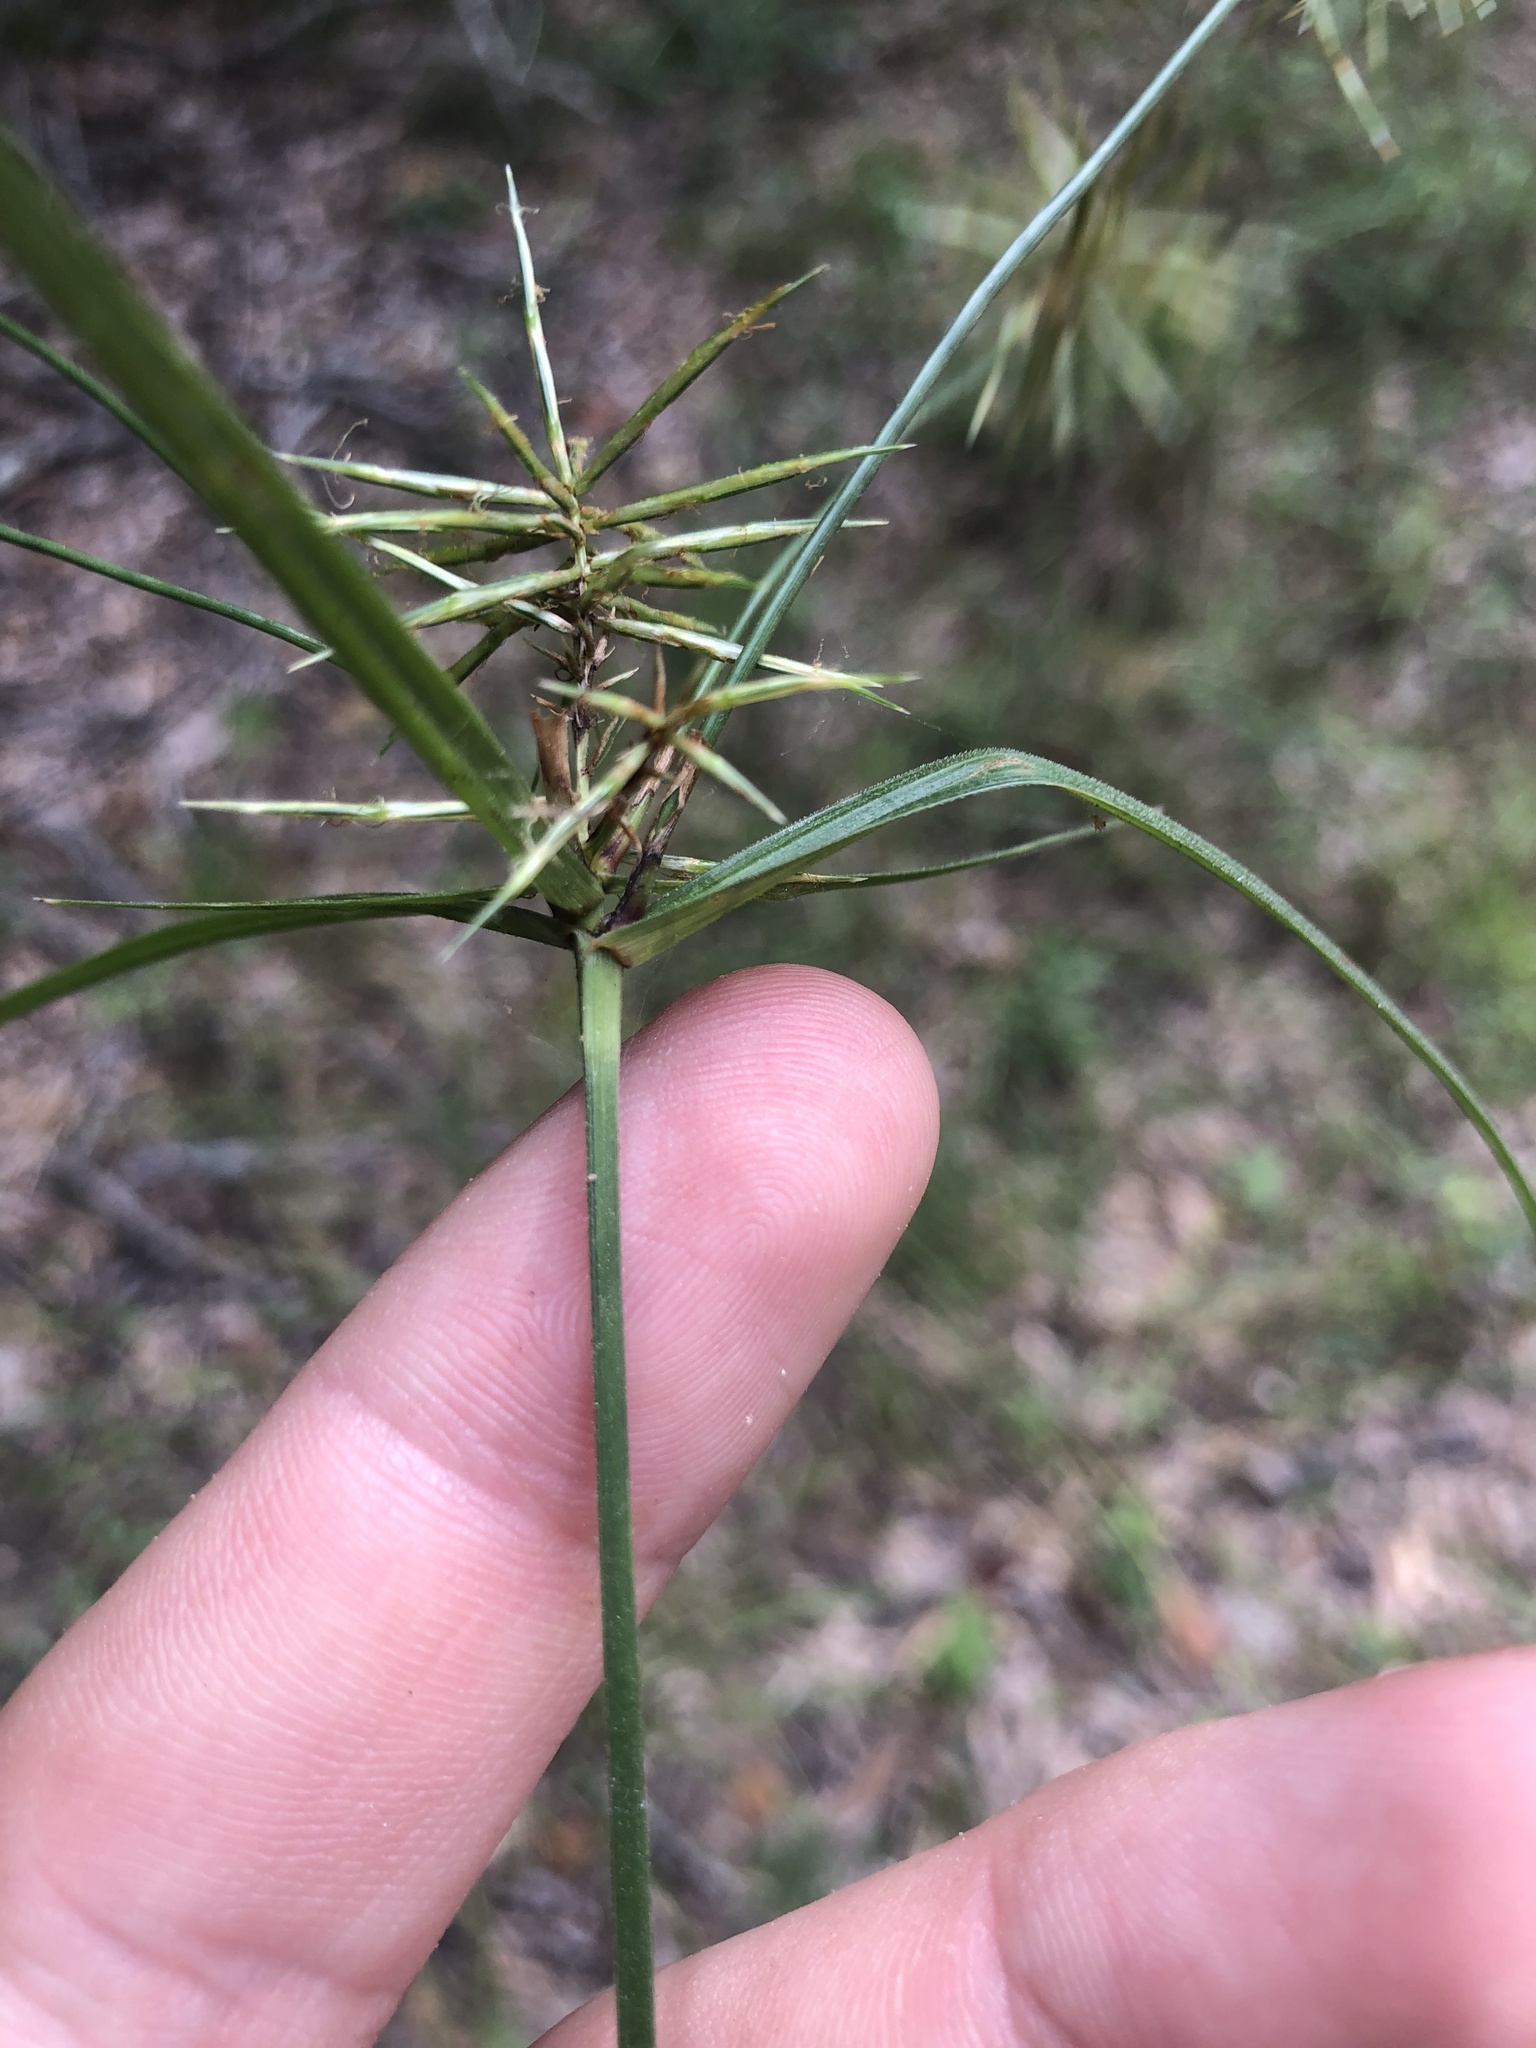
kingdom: Plantae
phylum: Tracheophyta
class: Liliopsida
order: Poales
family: Cyperaceae
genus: Cyperus
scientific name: Cyperus retrofractus
